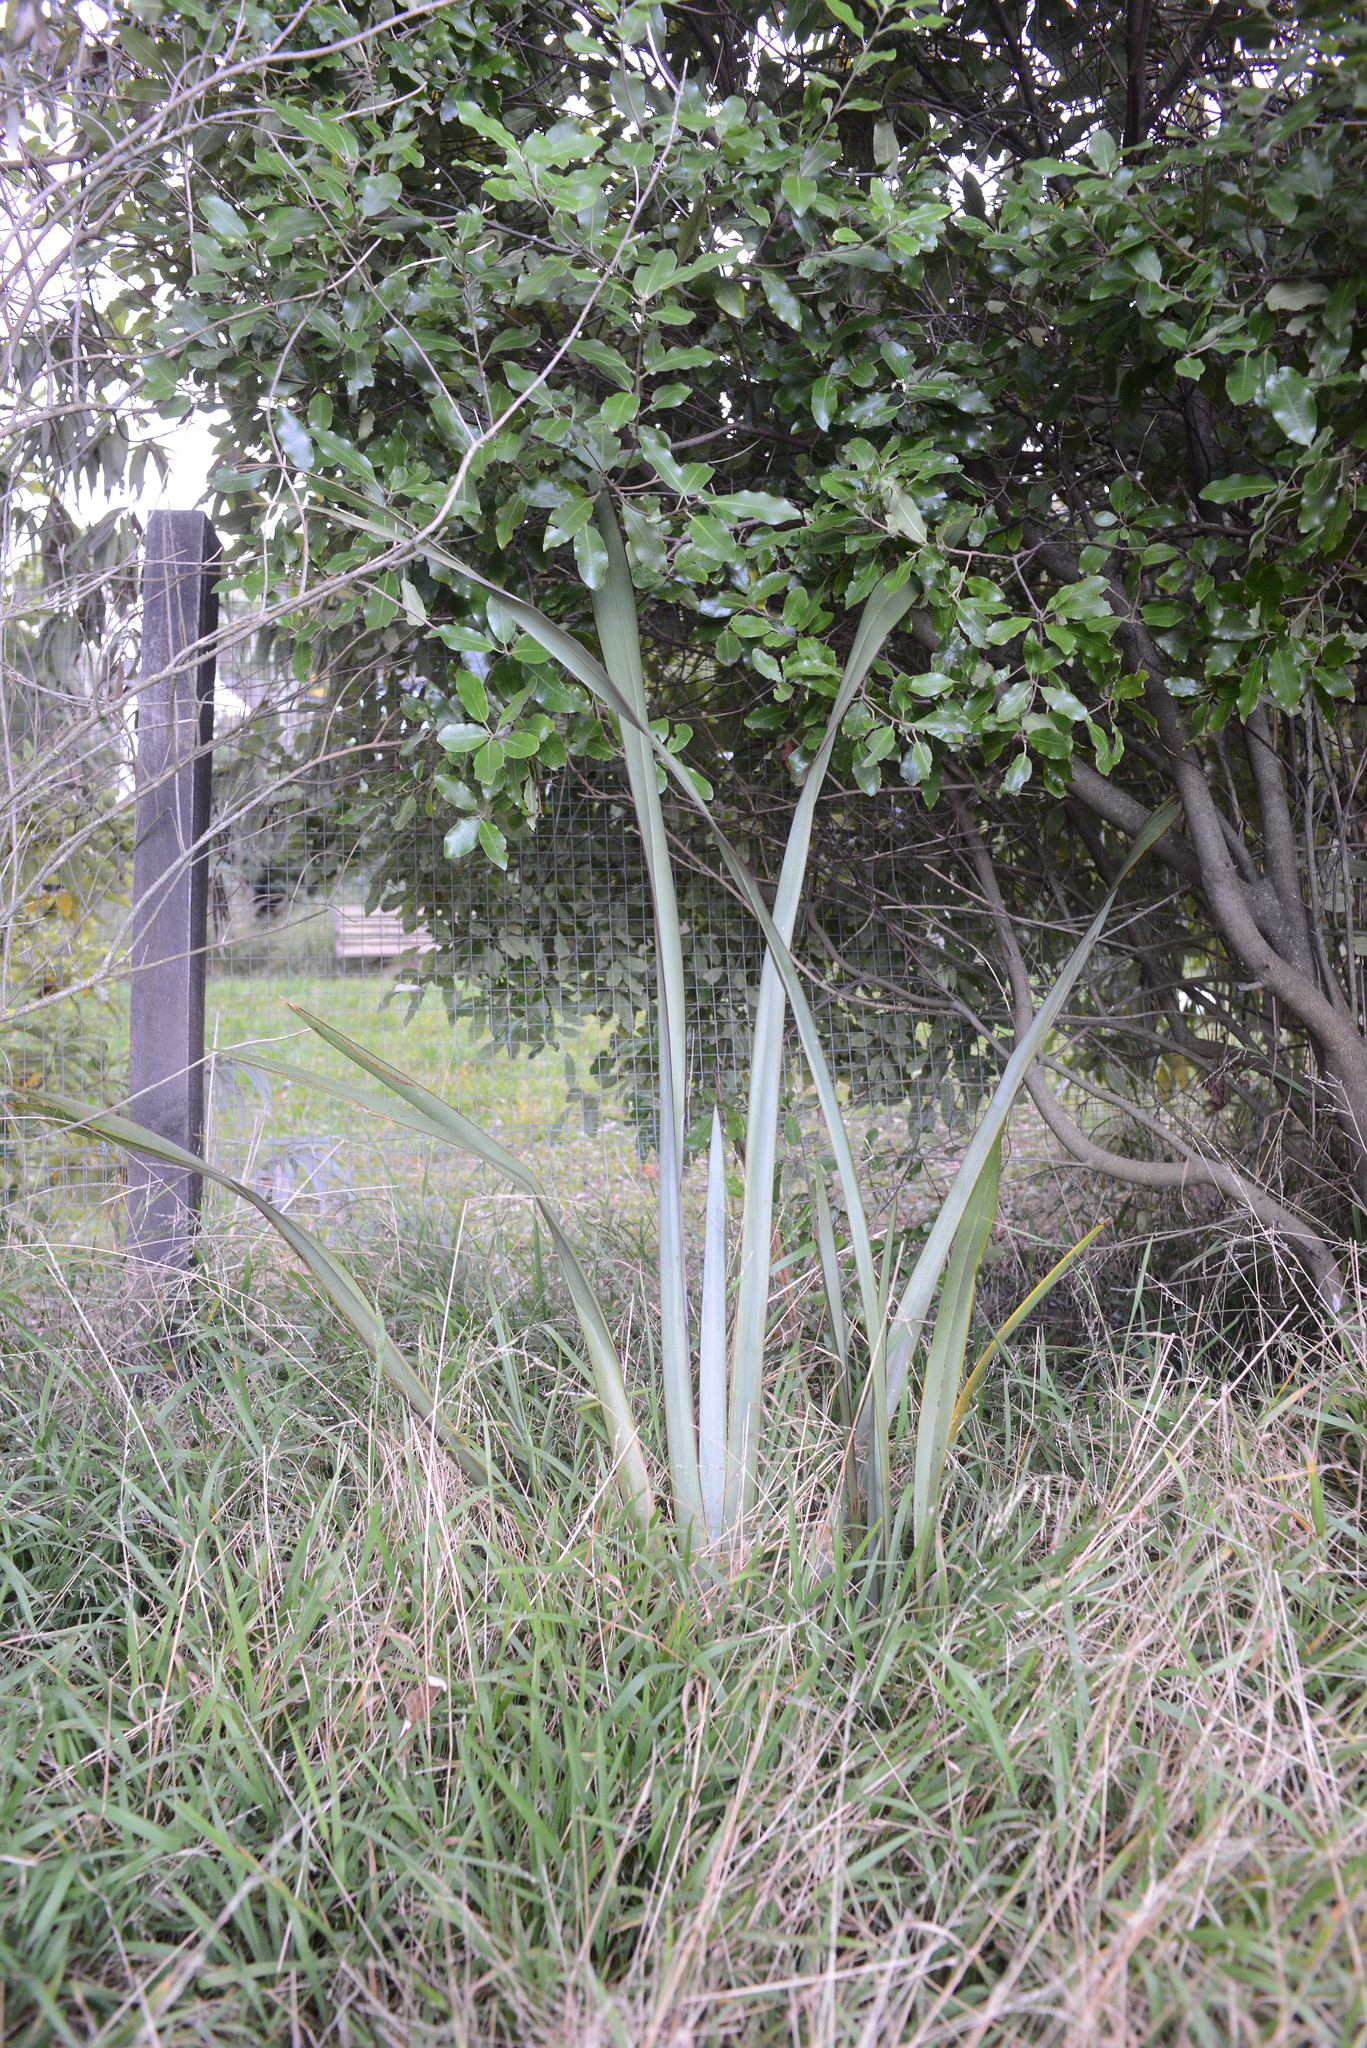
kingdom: Plantae
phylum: Tracheophyta
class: Liliopsida
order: Asparagales
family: Asphodelaceae
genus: Phormium
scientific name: Phormium tenax
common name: New zealand flax
